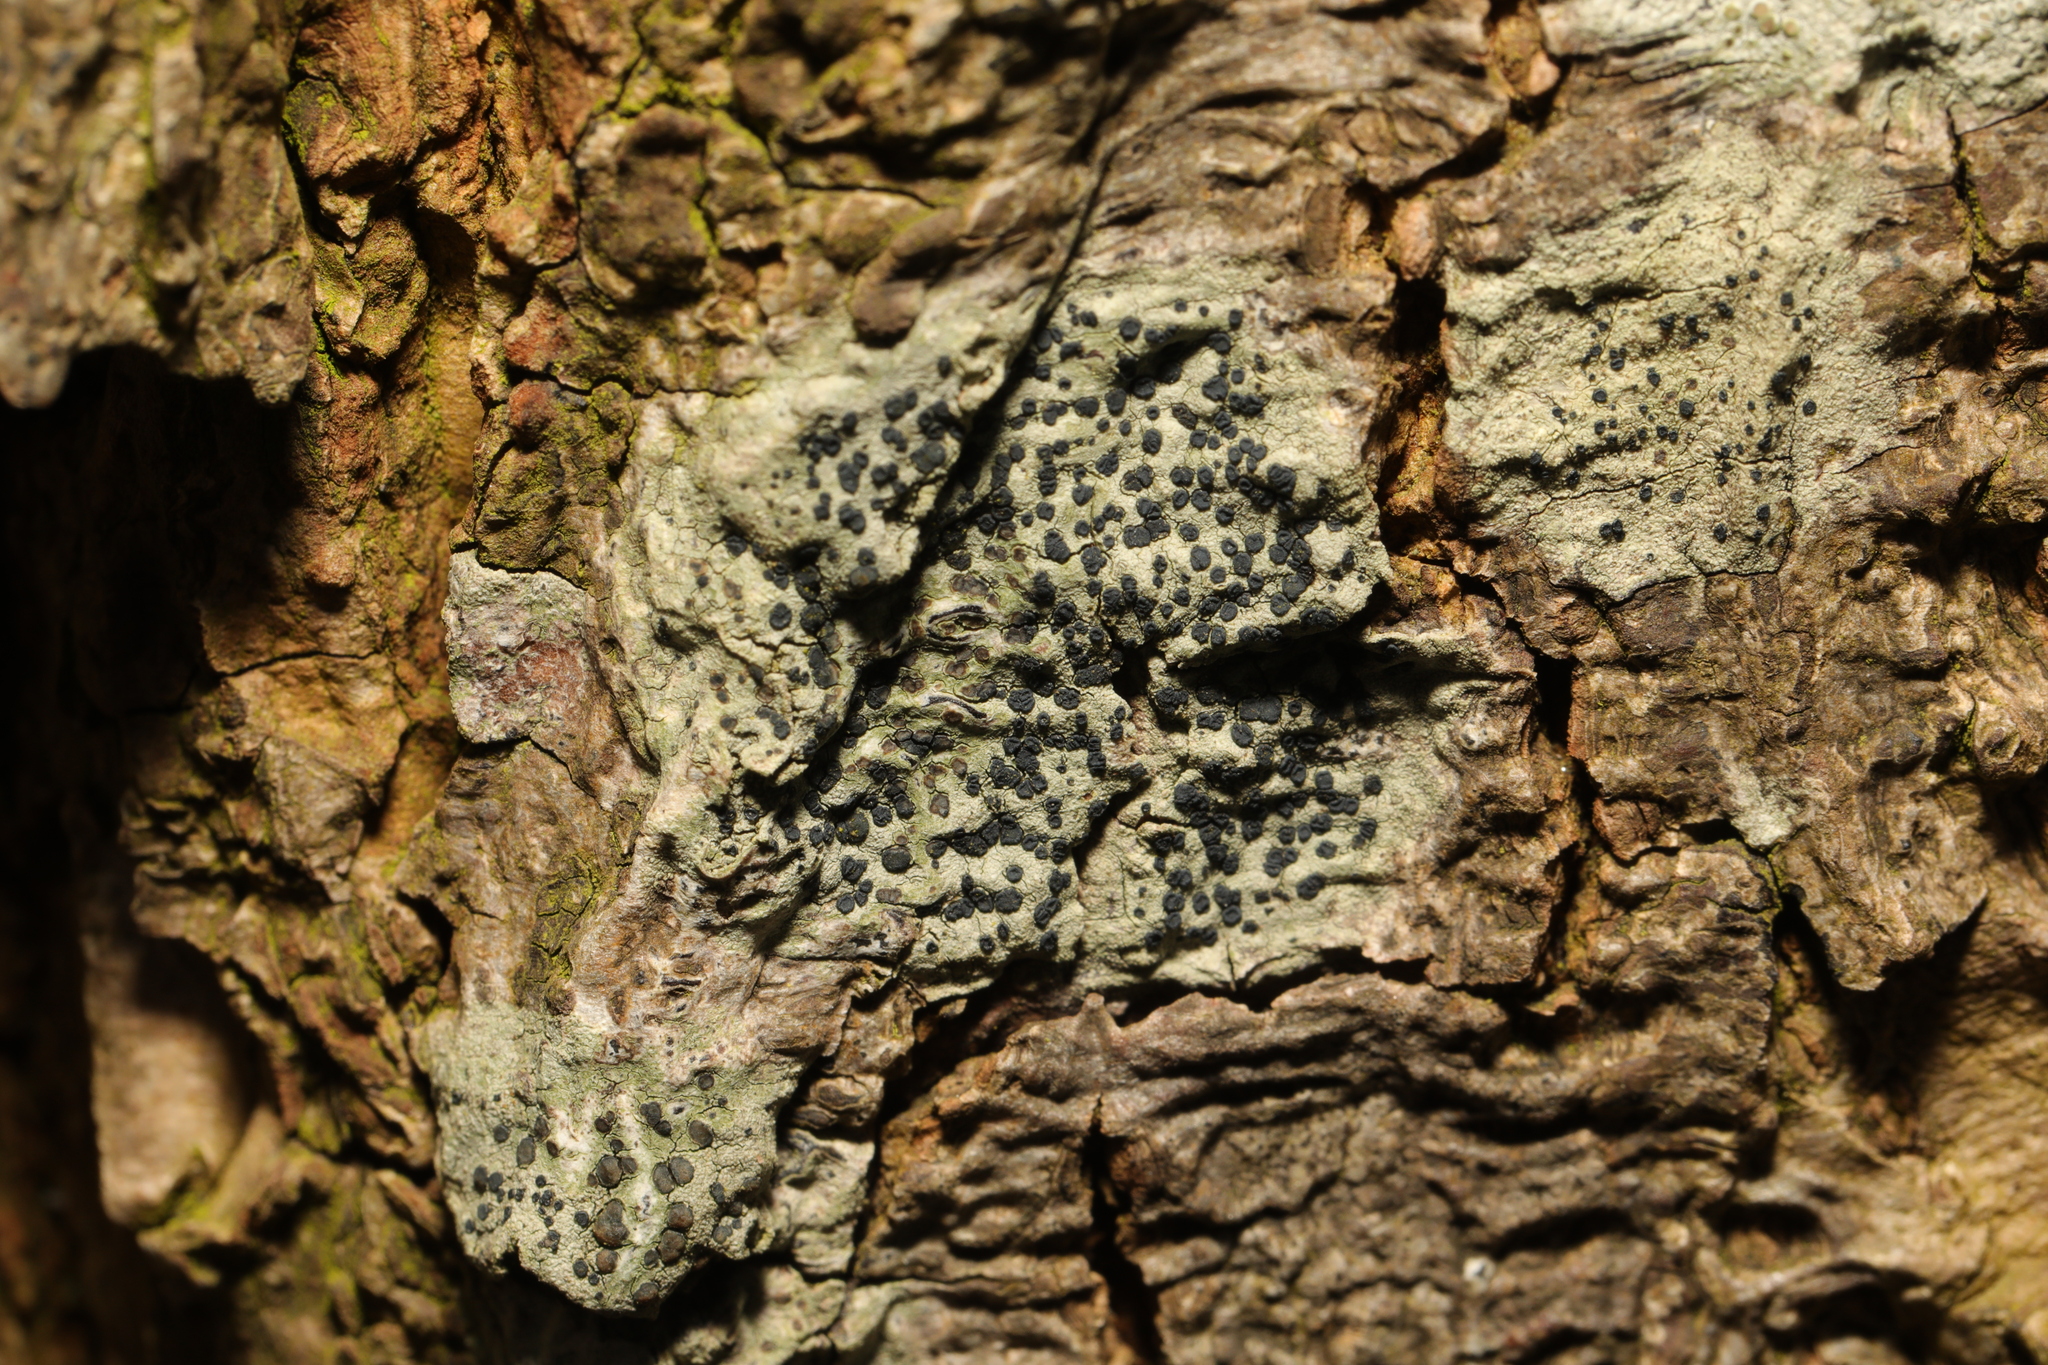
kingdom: Fungi
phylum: Ascomycota
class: Lecanoromycetes
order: Lecanorales
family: Lecanoraceae
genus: Lecidella
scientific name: Lecidella elaeochroma
